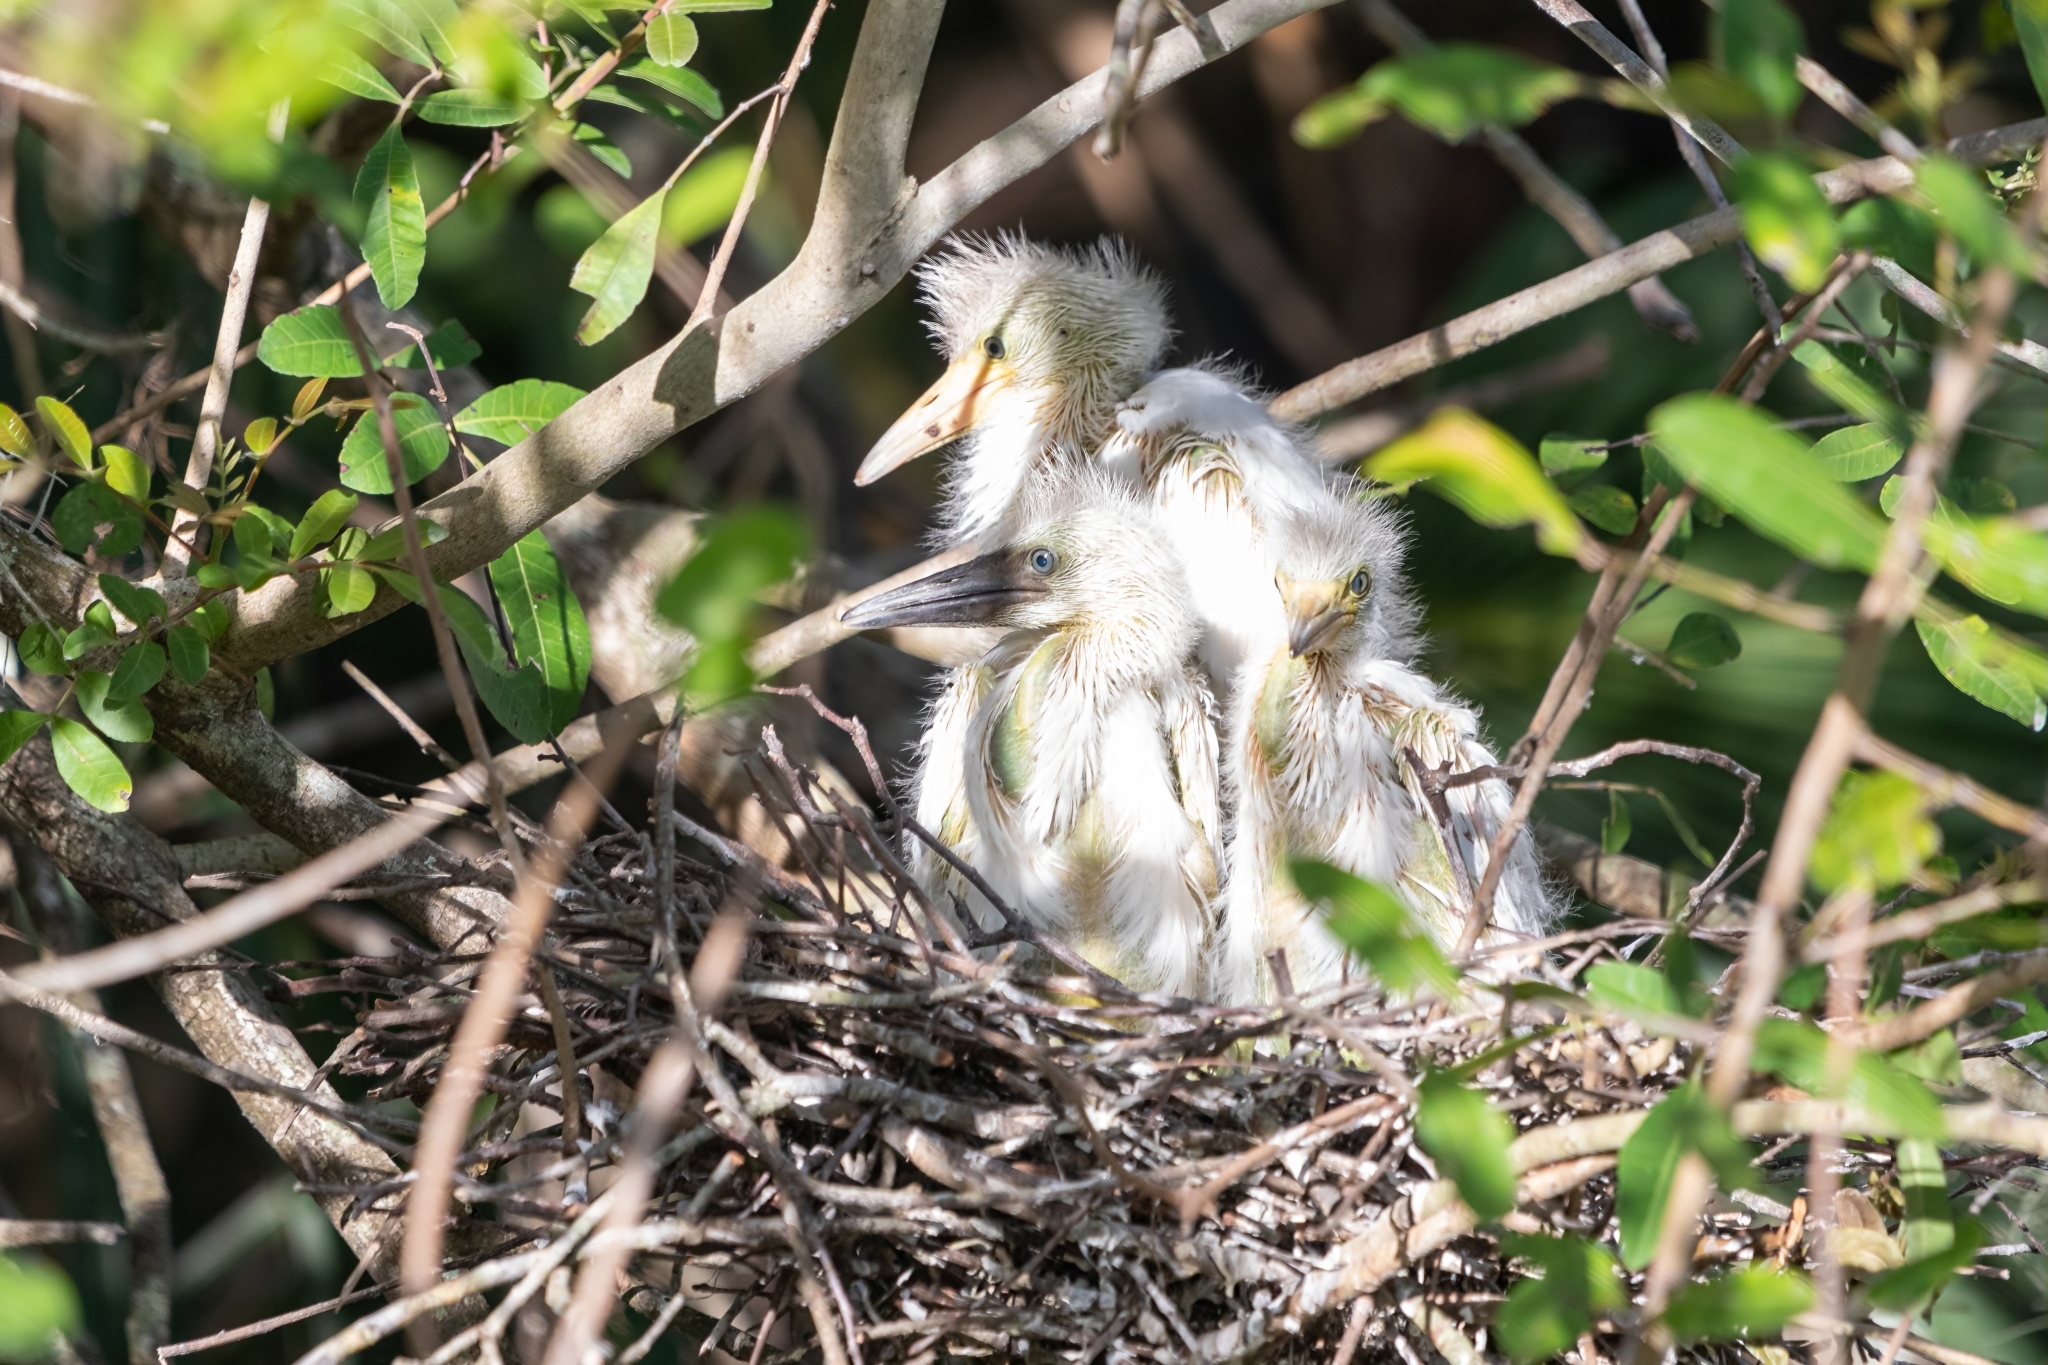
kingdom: Animalia
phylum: Chordata
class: Aves
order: Pelecaniformes
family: Ardeidae
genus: Egretta
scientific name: Egretta caerulea
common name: Little blue heron
